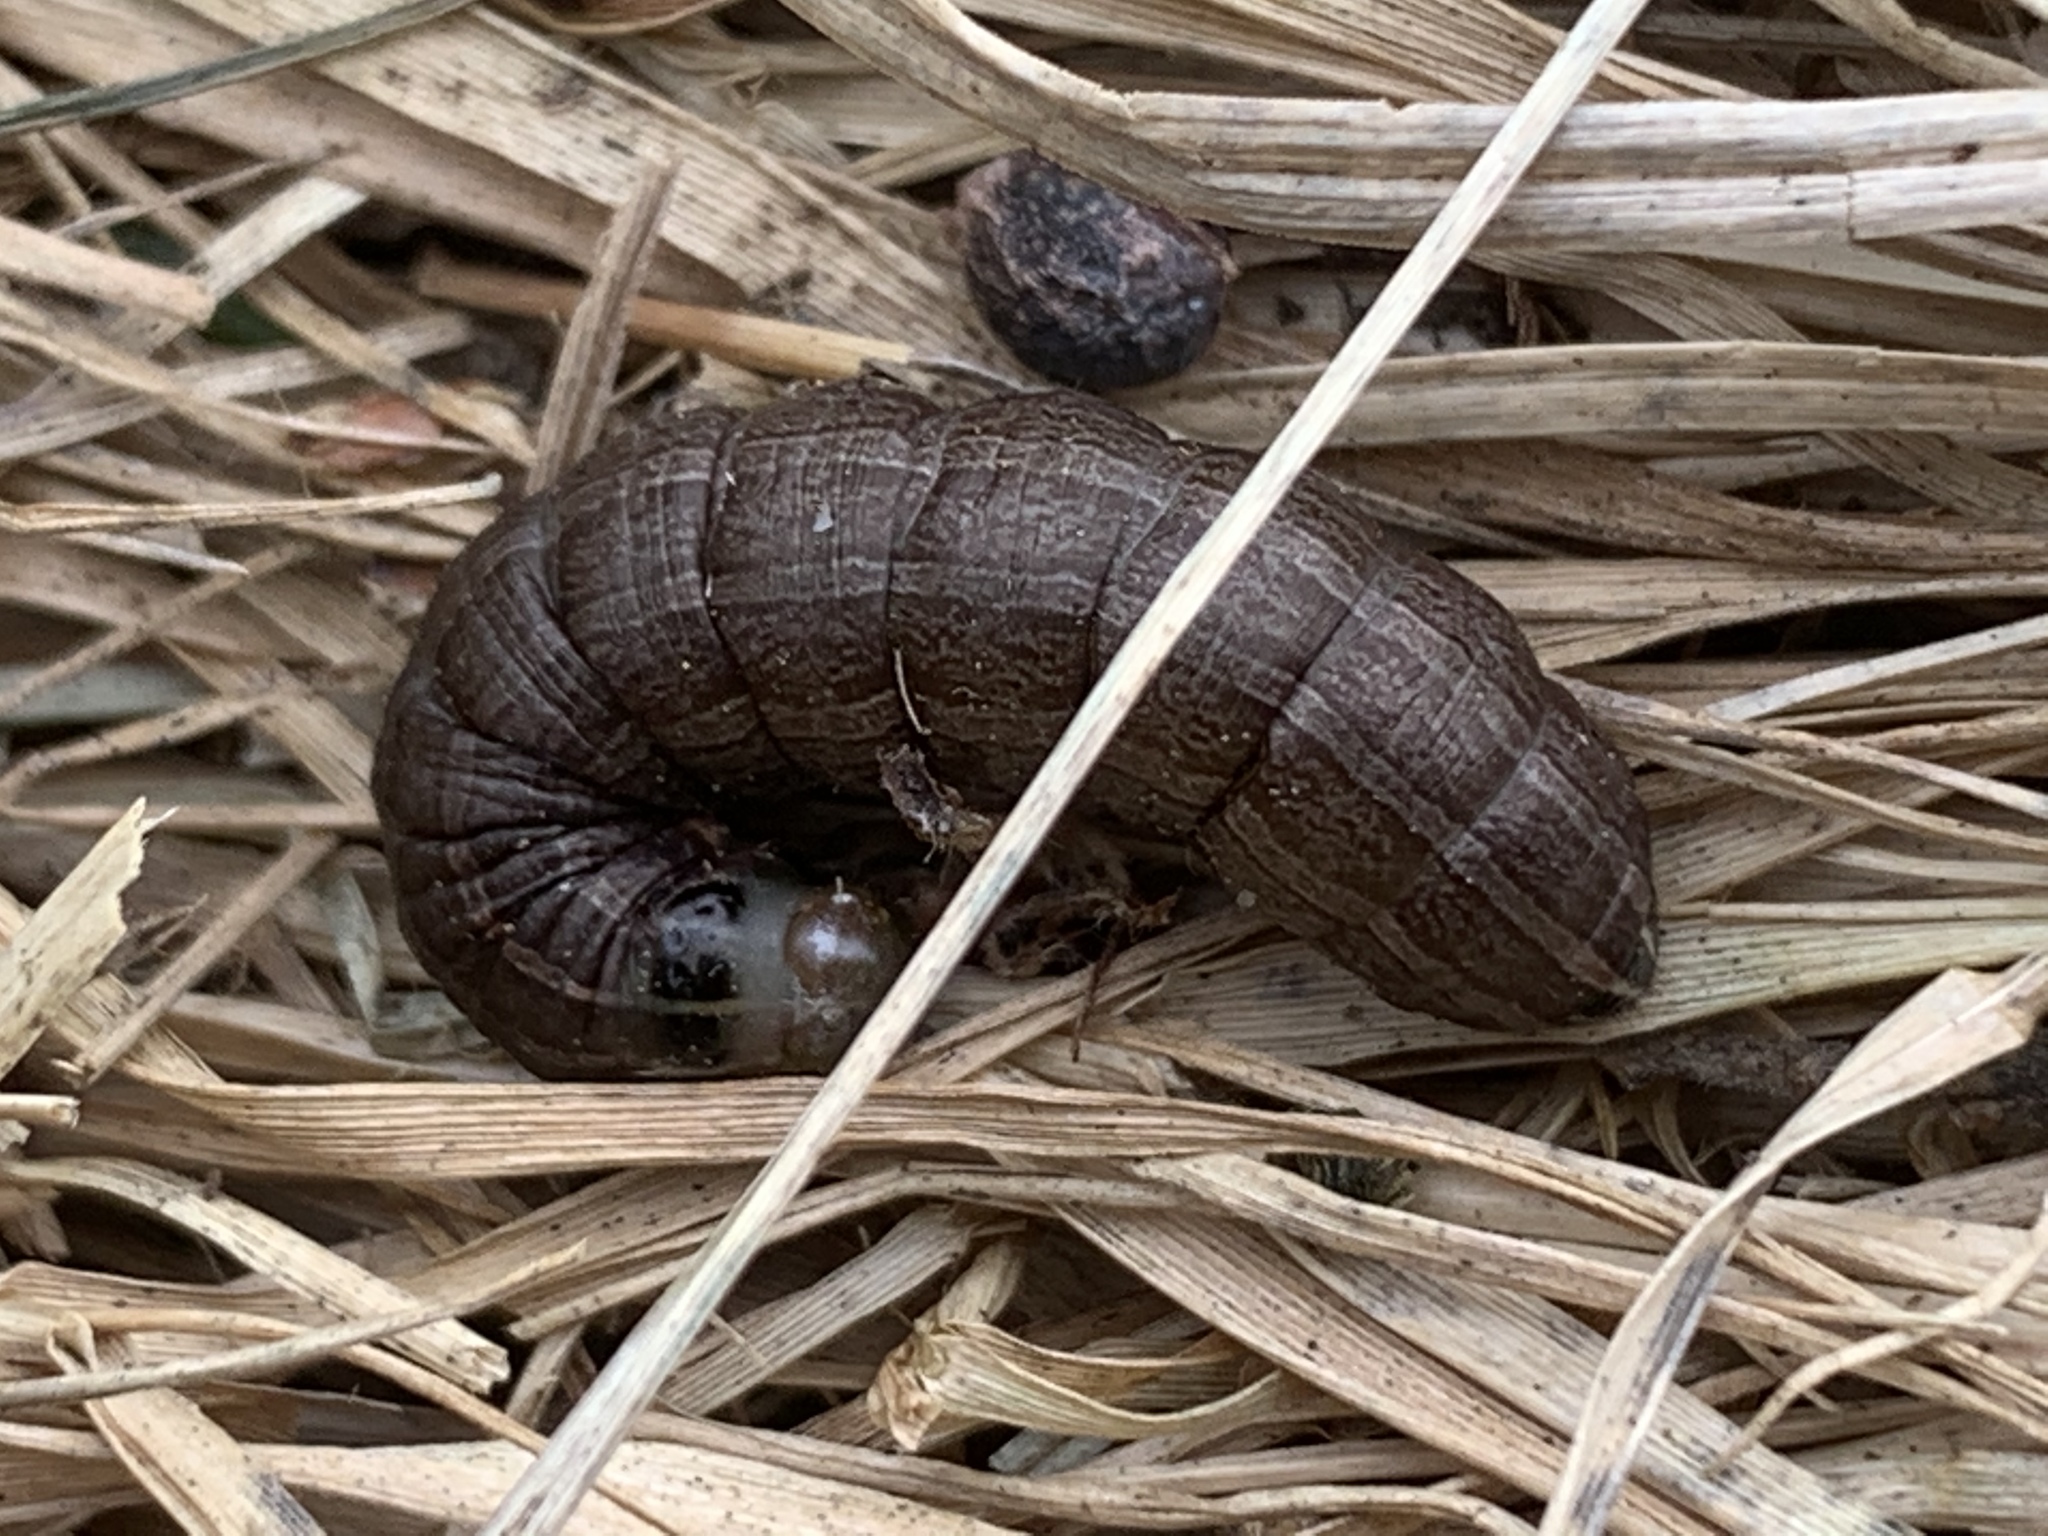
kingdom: Animalia
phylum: Arthropoda
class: Insecta
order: Lepidoptera
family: Noctuidae
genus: Nephelodes
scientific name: Nephelodes minians
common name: Bronzed cutworm
